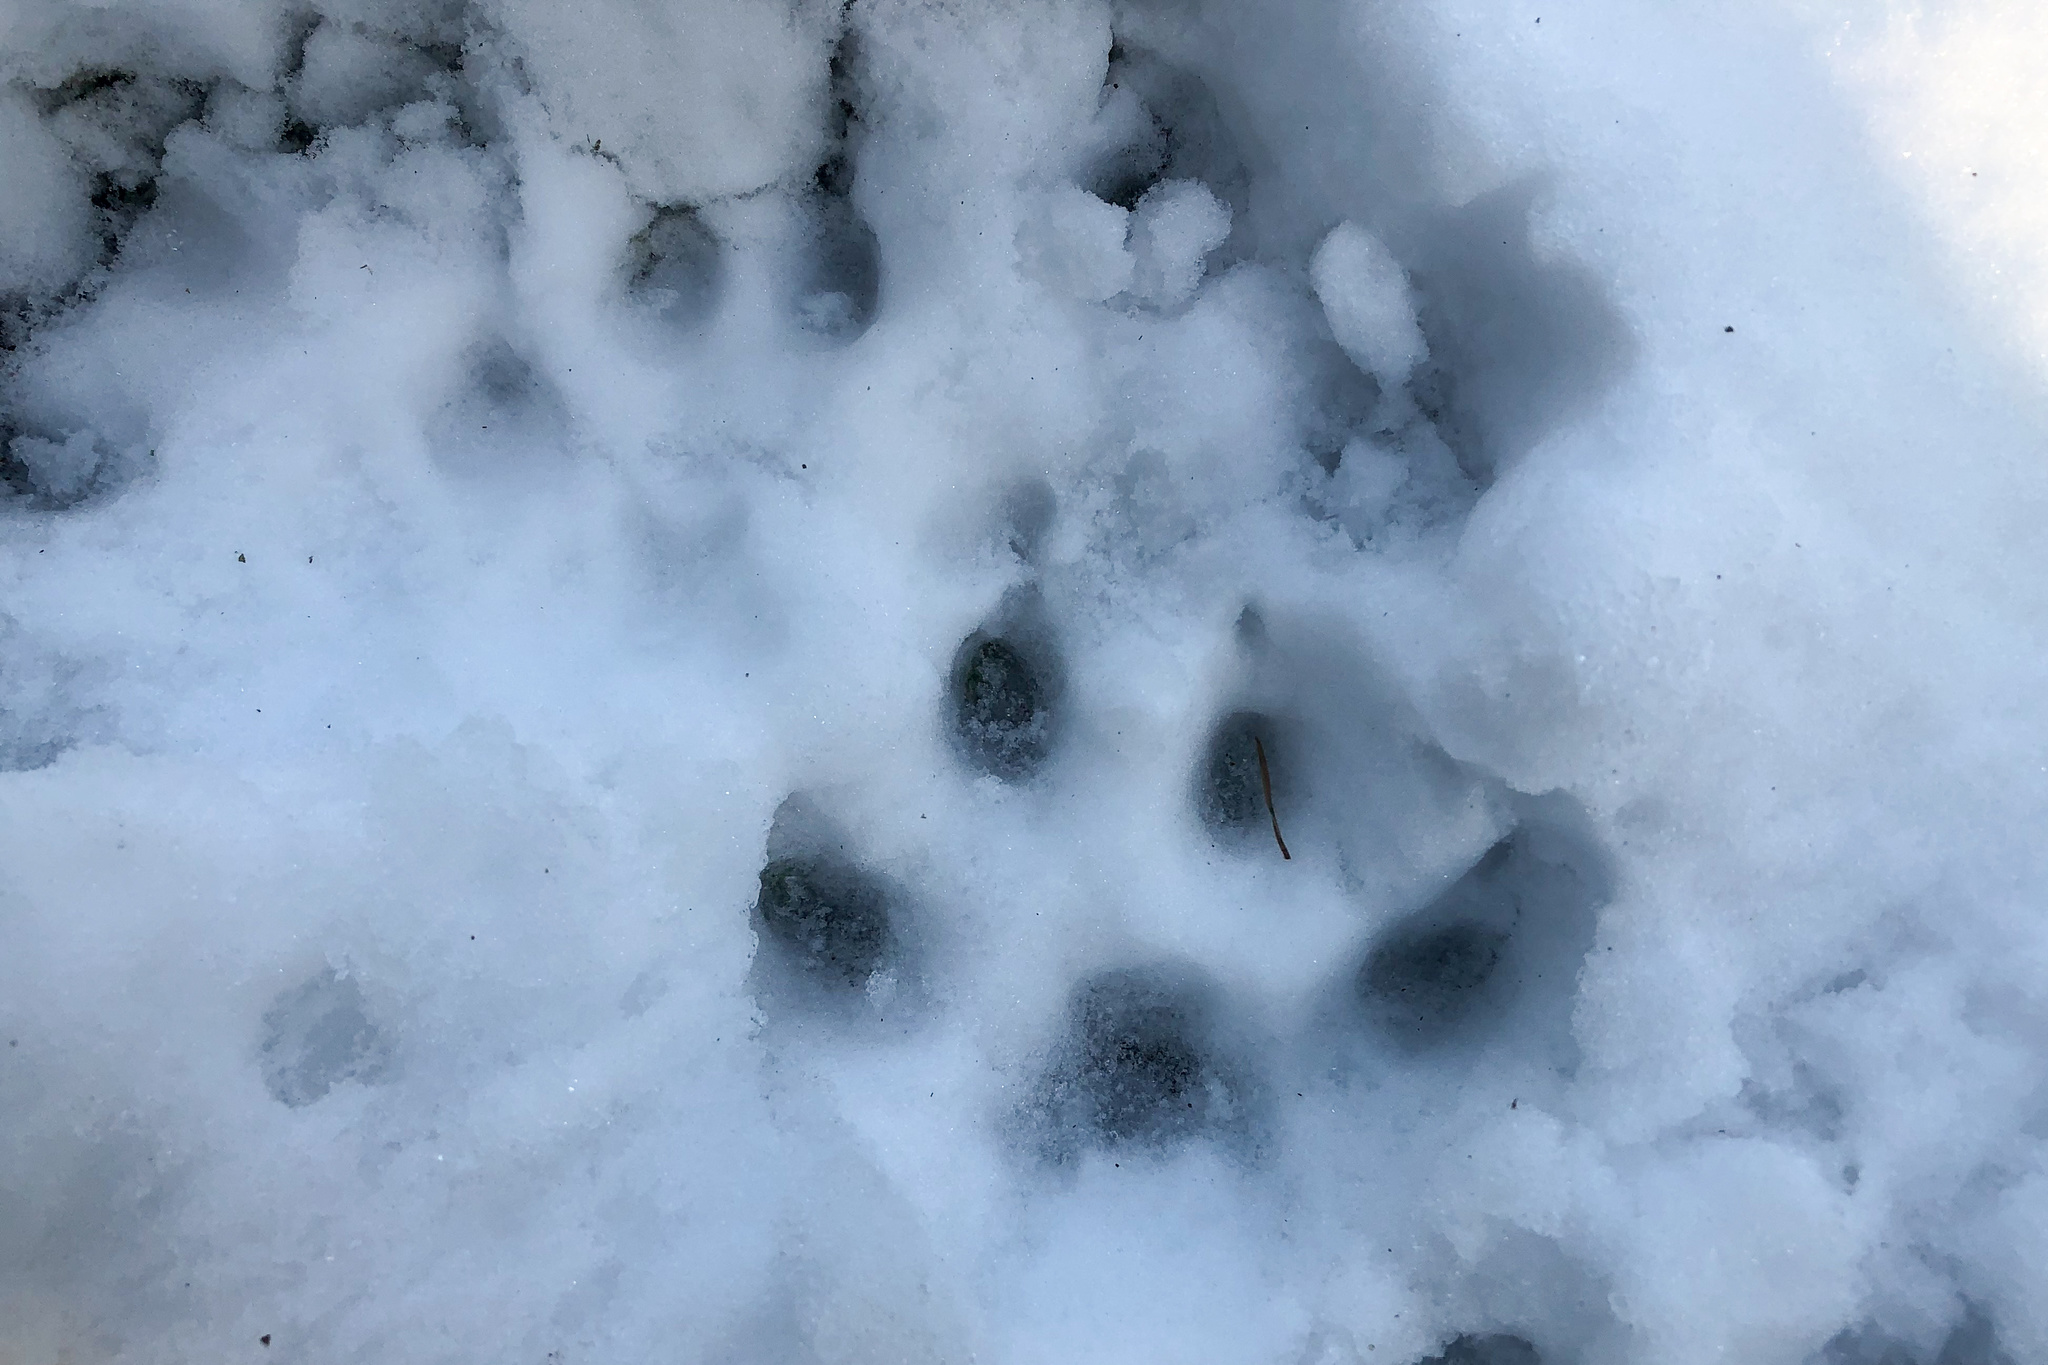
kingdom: Animalia
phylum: Chordata
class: Mammalia
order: Carnivora
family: Felidae
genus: Lynx
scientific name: Lynx lynx
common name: Eurasian lynx
